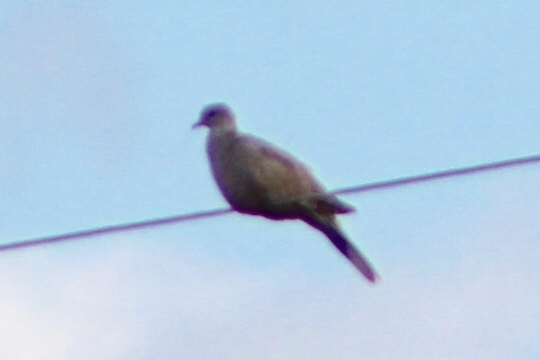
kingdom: Animalia
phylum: Chordata
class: Aves
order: Columbiformes
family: Columbidae
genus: Streptopelia
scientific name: Streptopelia decaocto
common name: Eurasian collared dove
